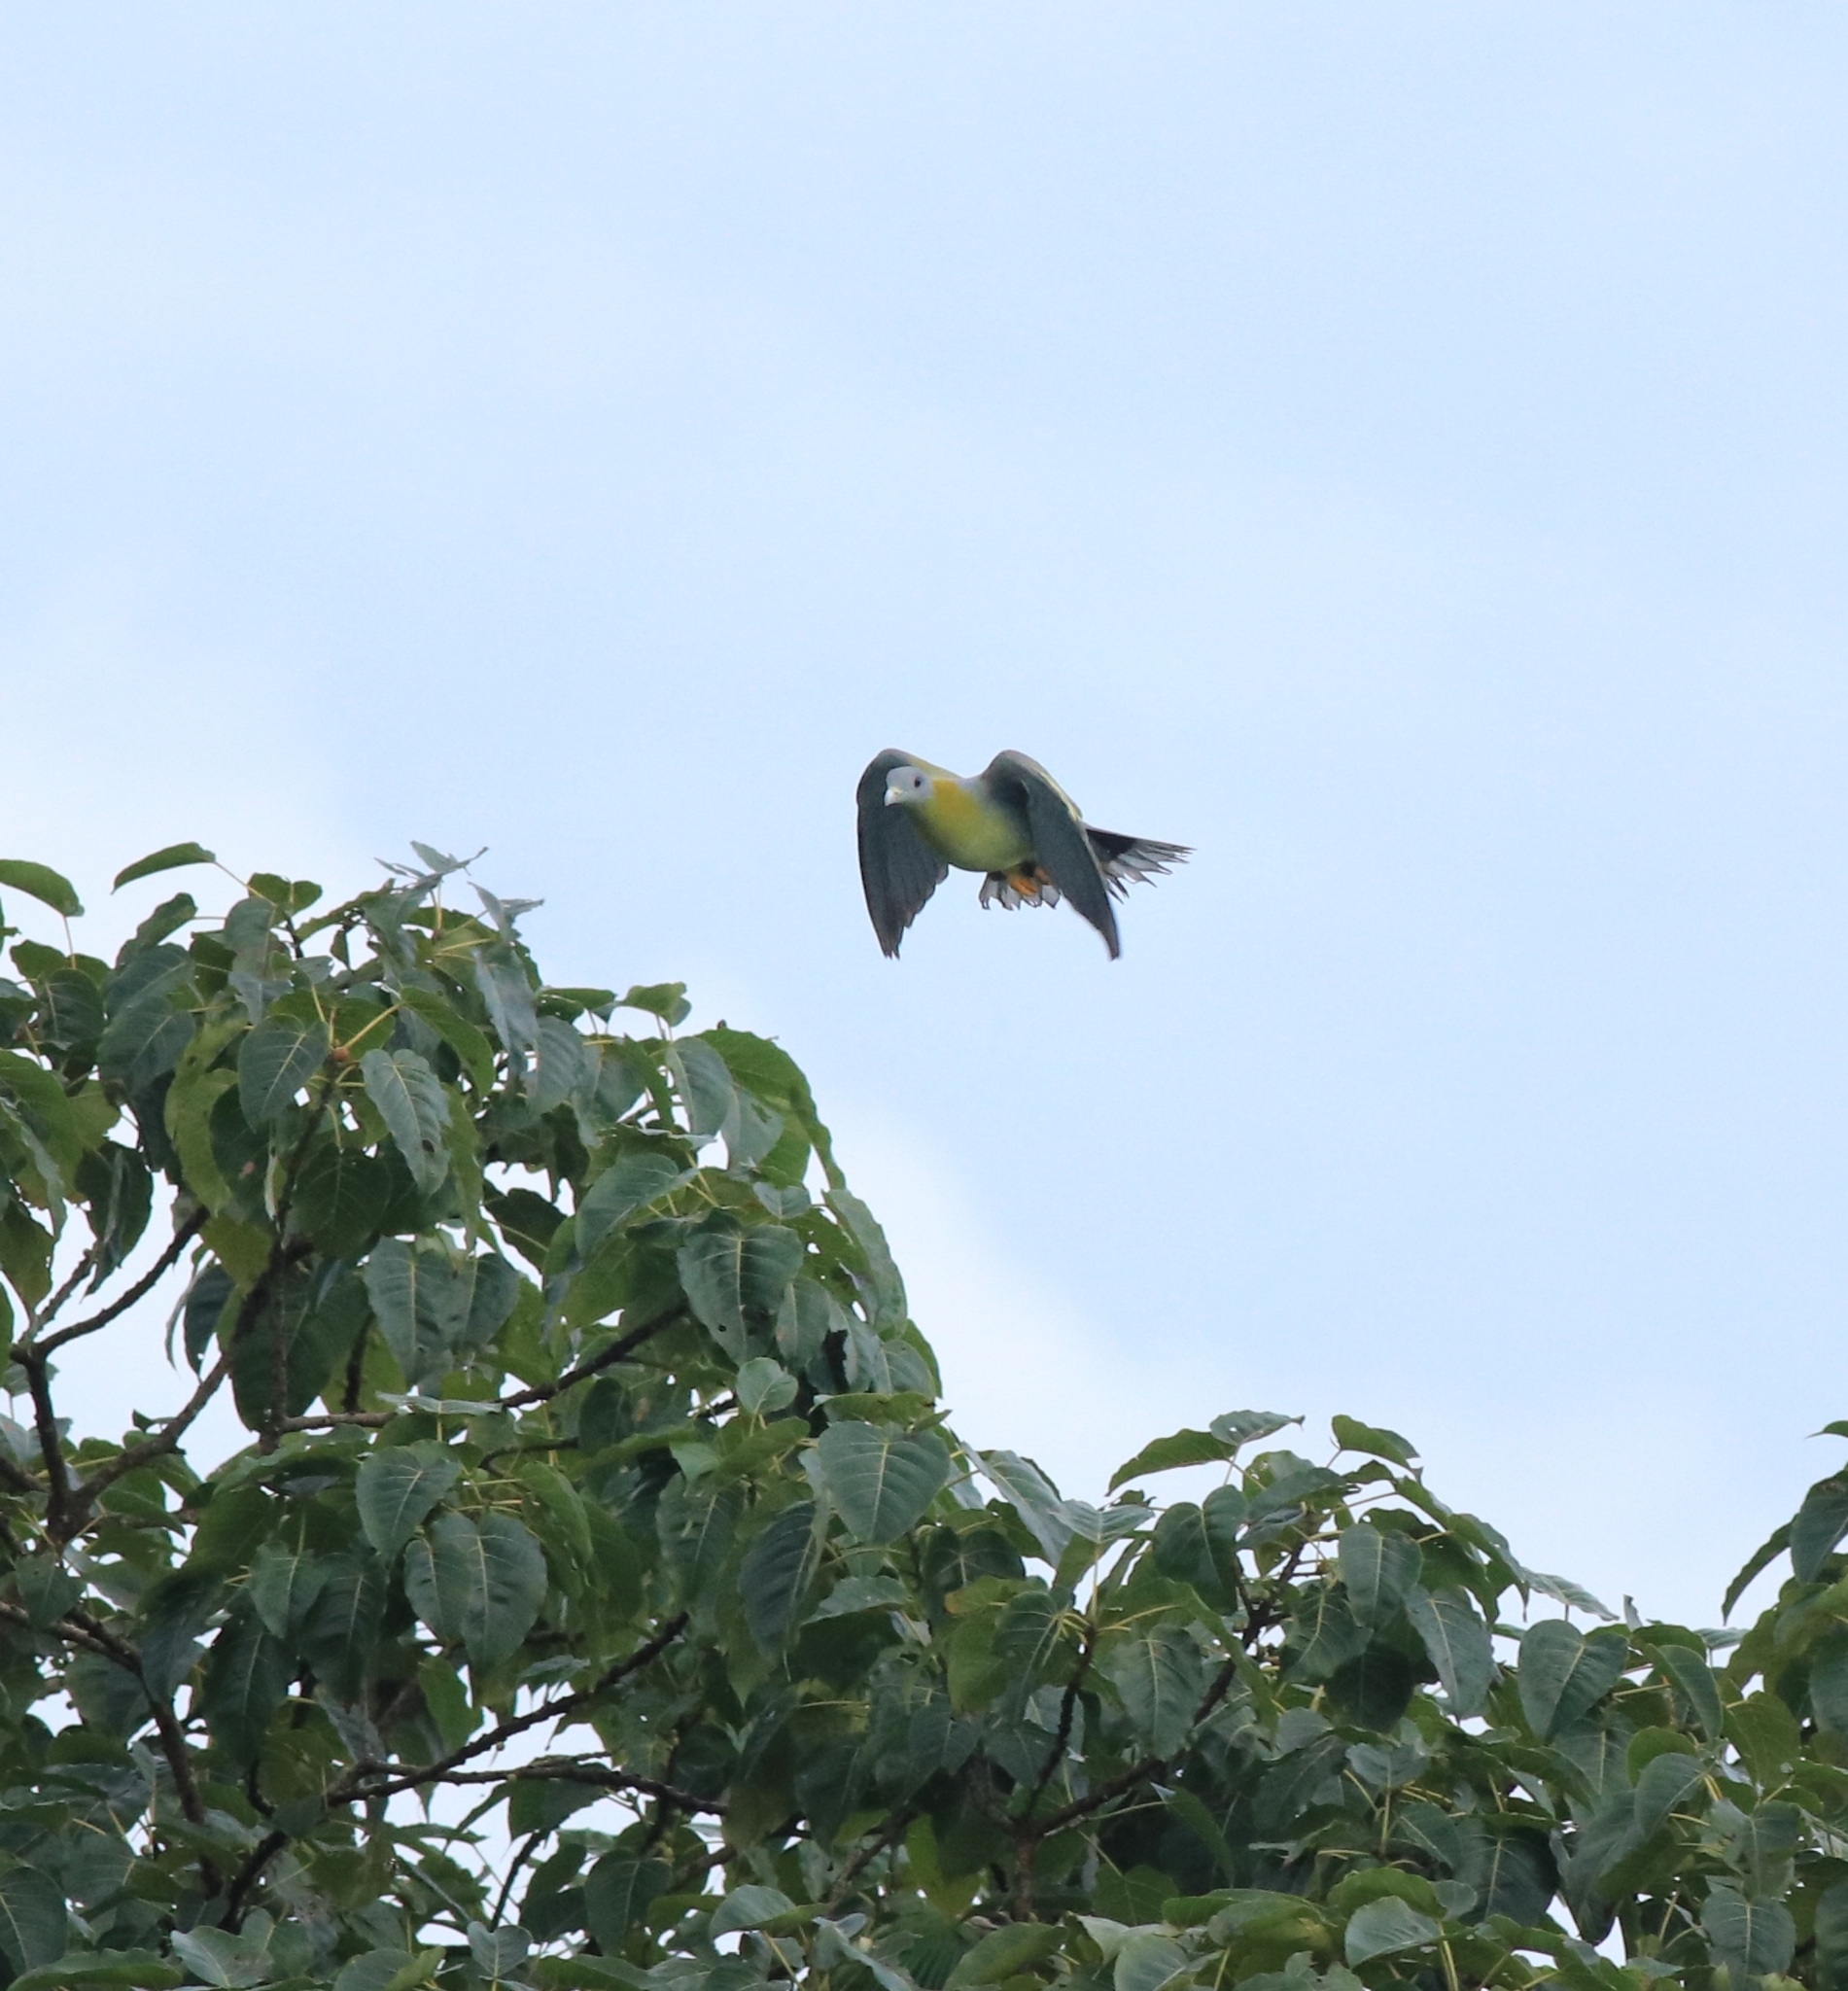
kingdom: Animalia
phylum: Chordata
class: Aves
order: Columbiformes
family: Columbidae
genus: Treron
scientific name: Treron phoenicopterus
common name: Yellow-footed green pigeon
